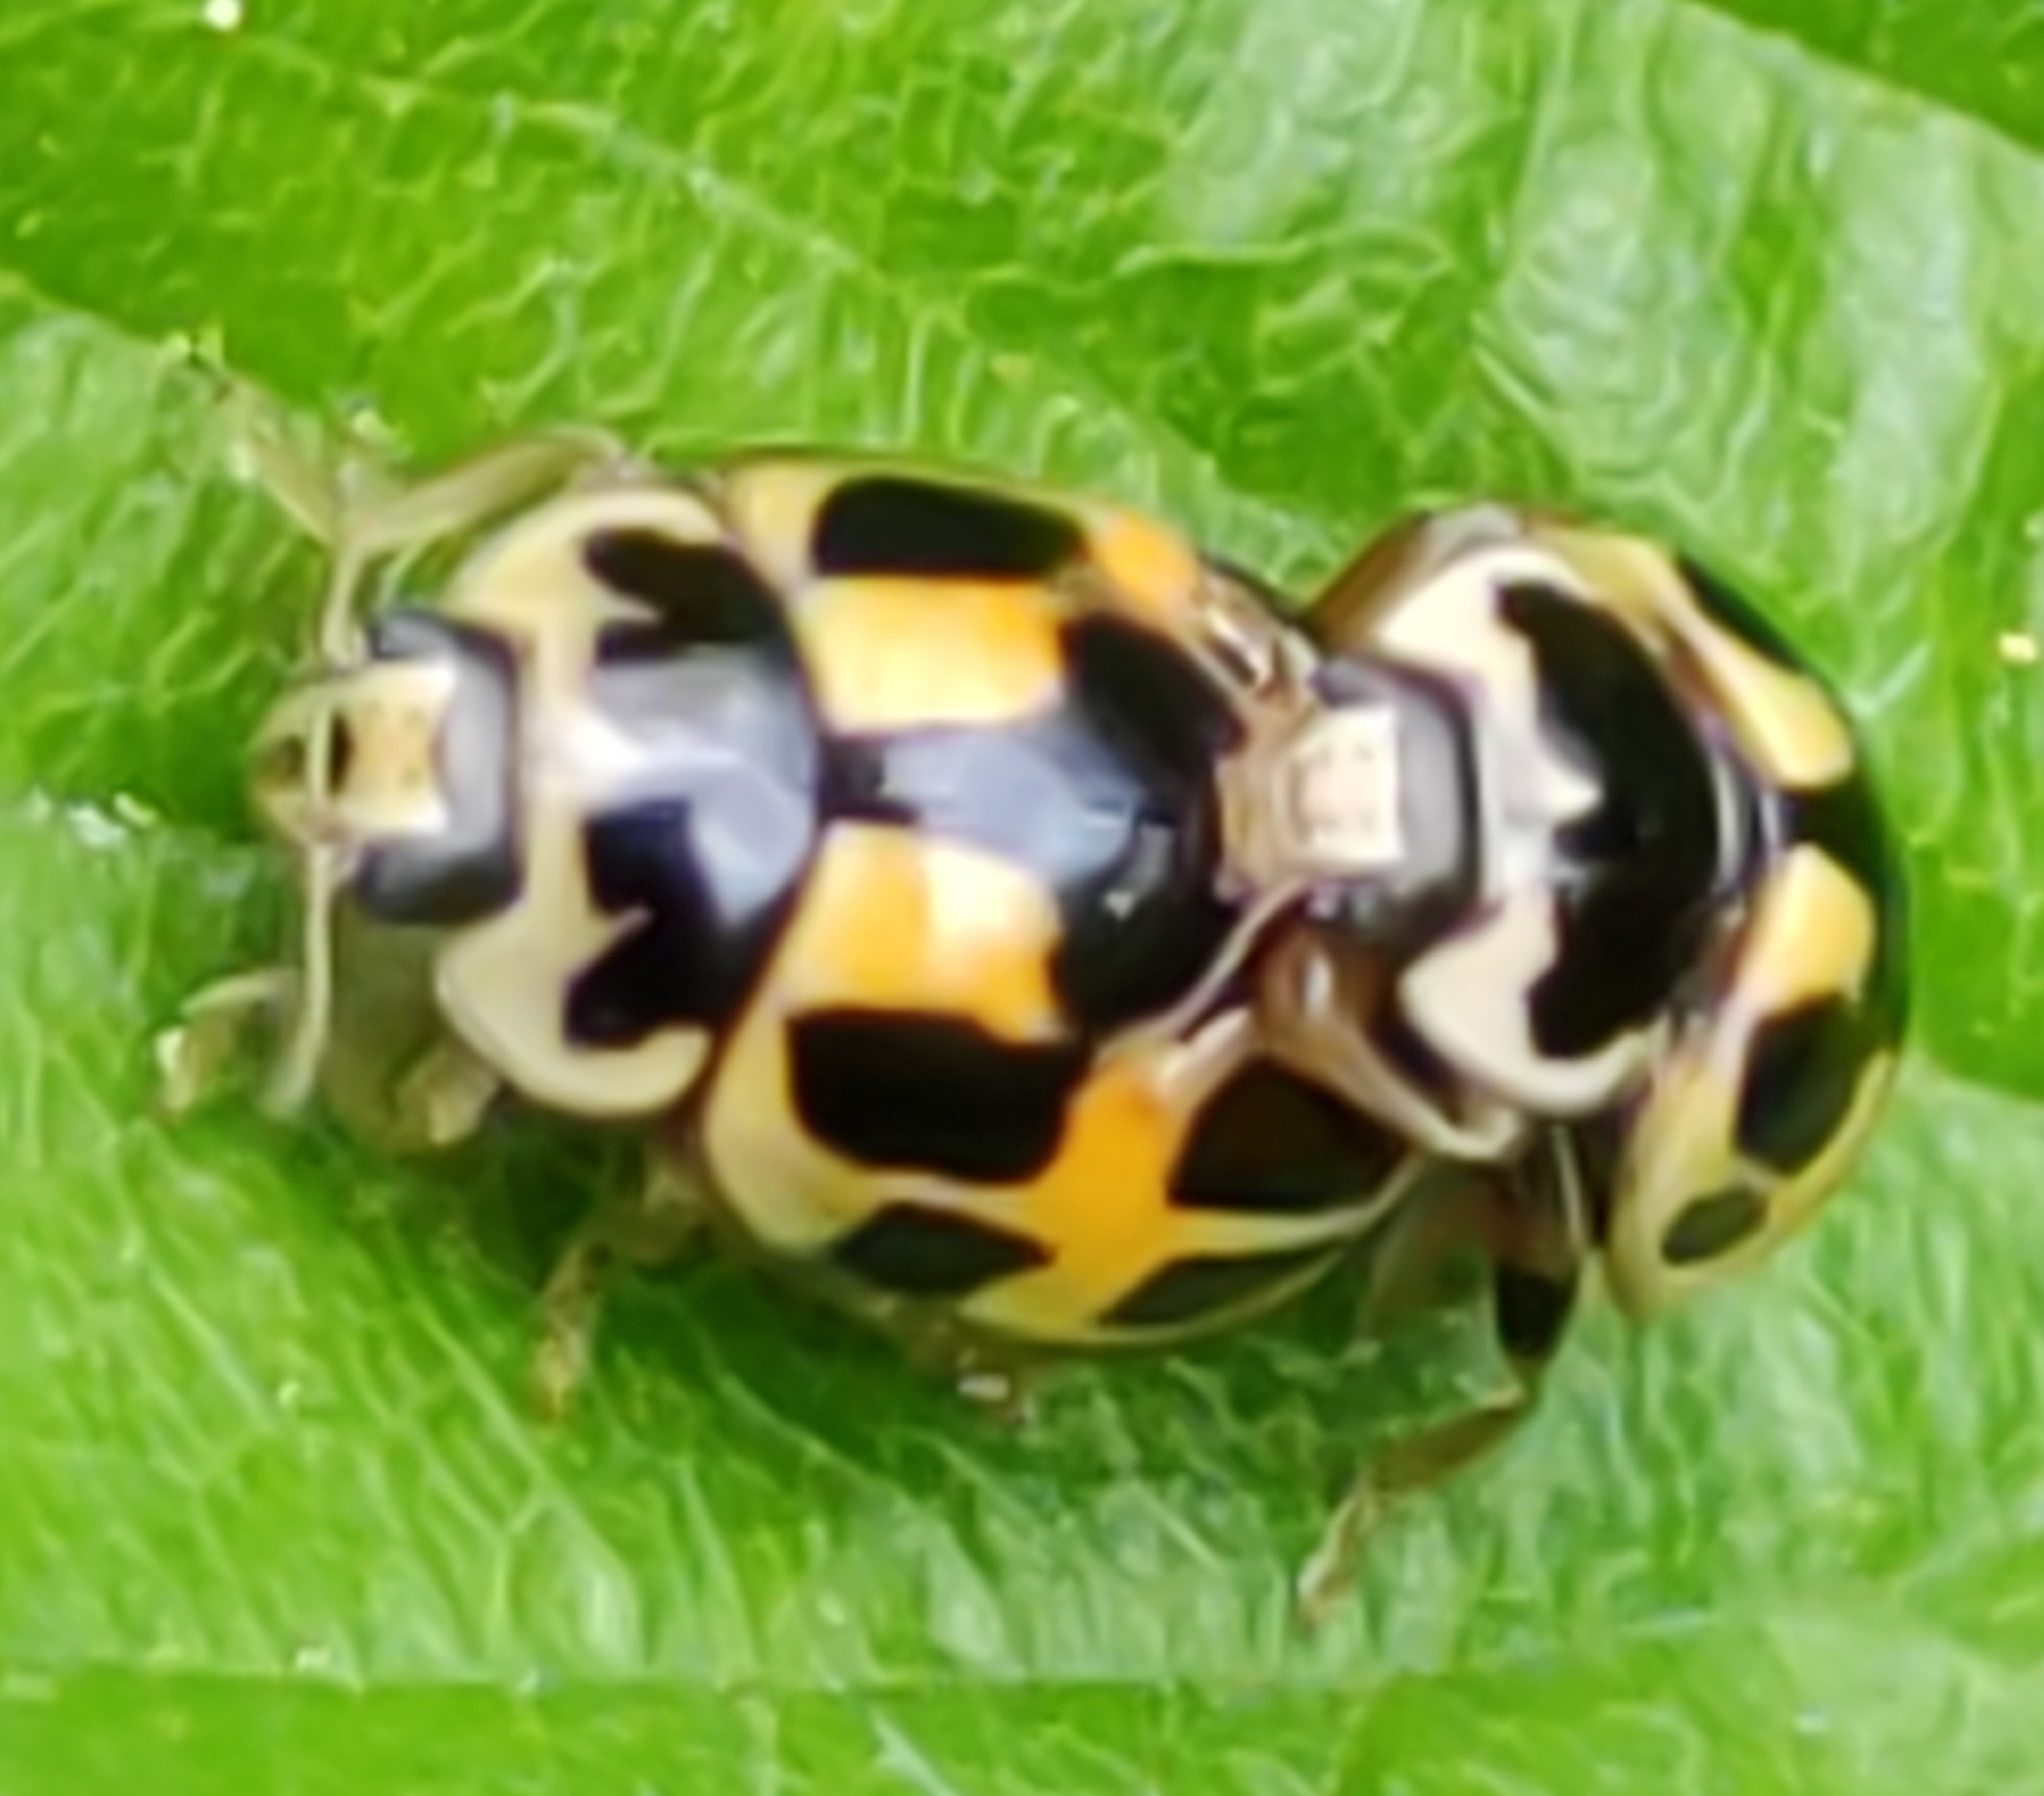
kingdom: Animalia
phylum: Arthropoda
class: Insecta
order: Coleoptera
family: Coccinellidae
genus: Propylaea
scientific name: Propylaea quatuordecimpunctata
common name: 14-spotted ladybird beetle
